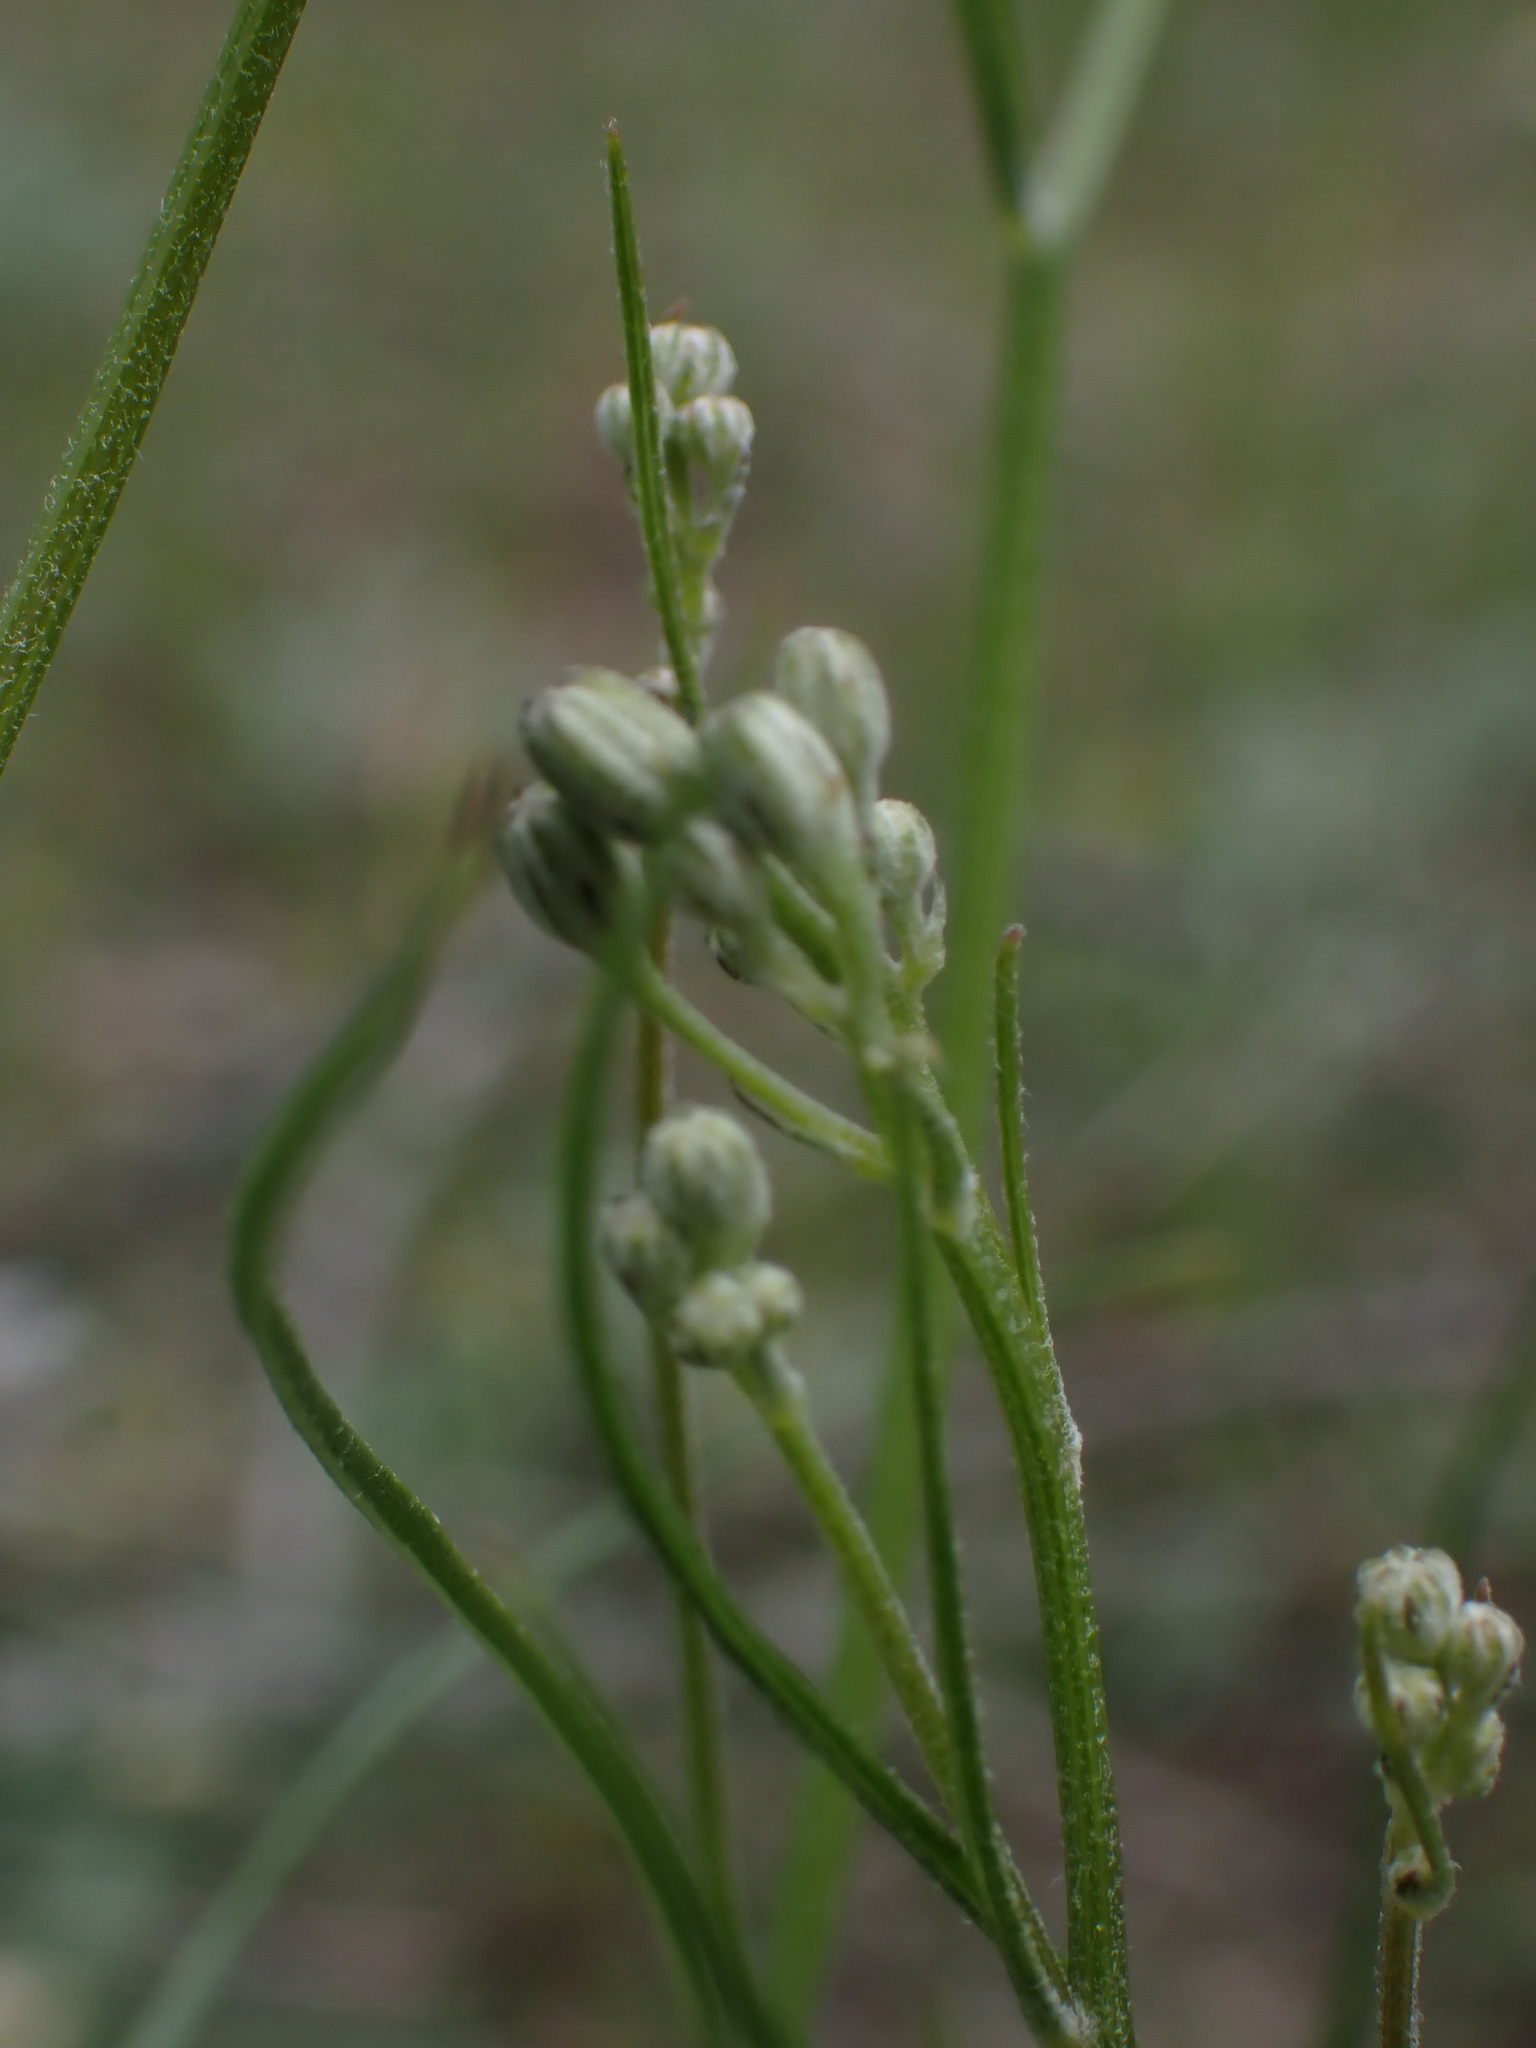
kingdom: Plantae
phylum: Tracheophyta
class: Magnoliopsida
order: Asterales
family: Asteraceae
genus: Crepis
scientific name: Crepis atribarba
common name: Dark hawk's-beard
